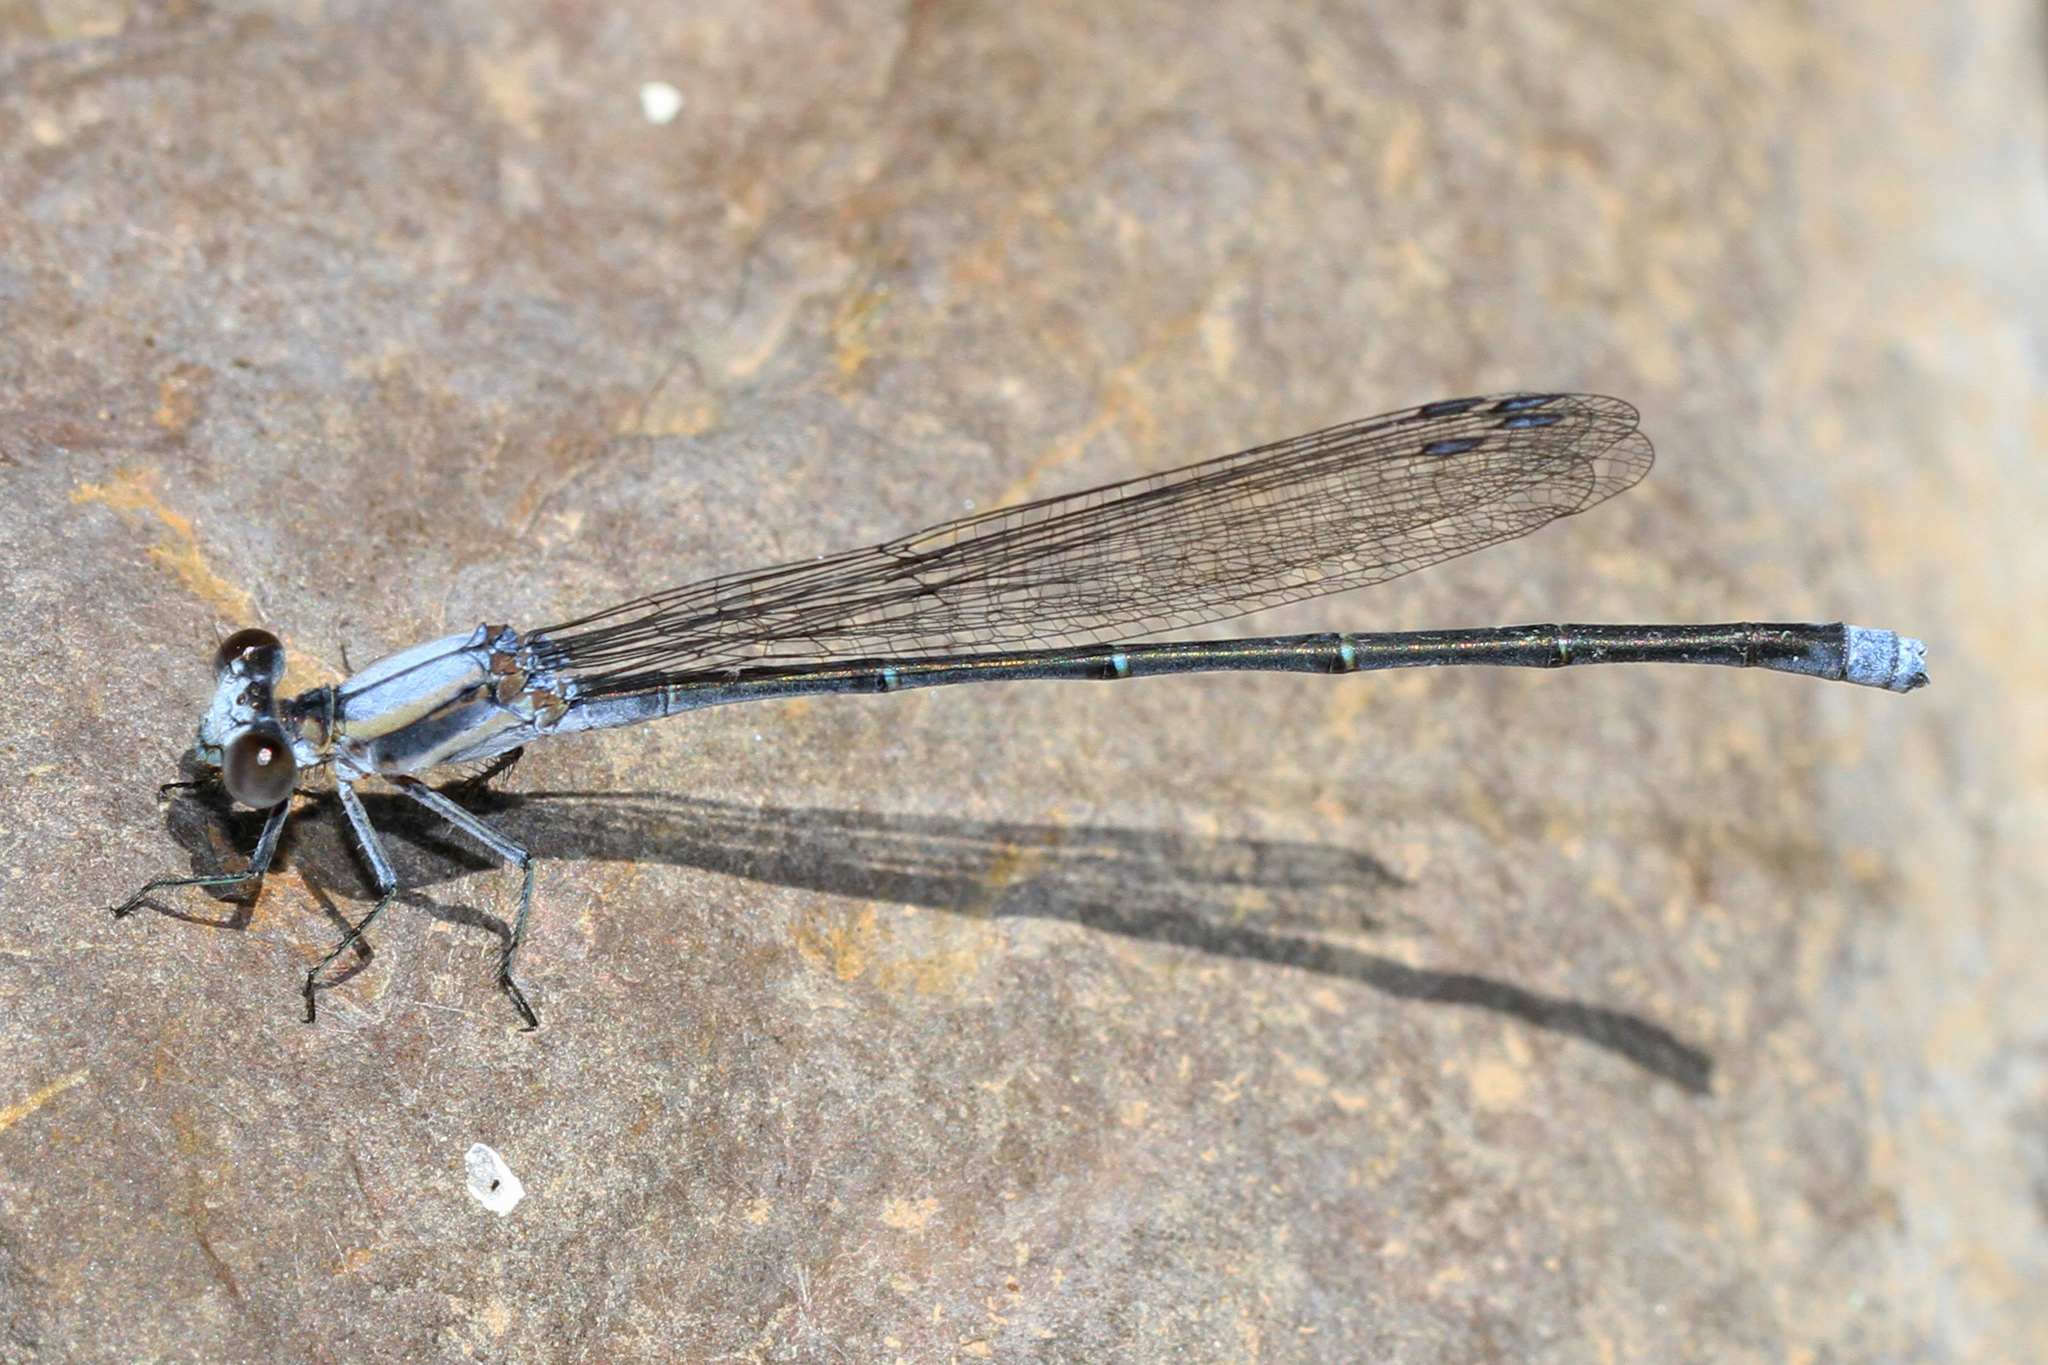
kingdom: Animalia
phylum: Arthropoda
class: Insecta
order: Odonata
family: Coenagrionidae
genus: Argia
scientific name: Argia moesta
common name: Powdered dancer
